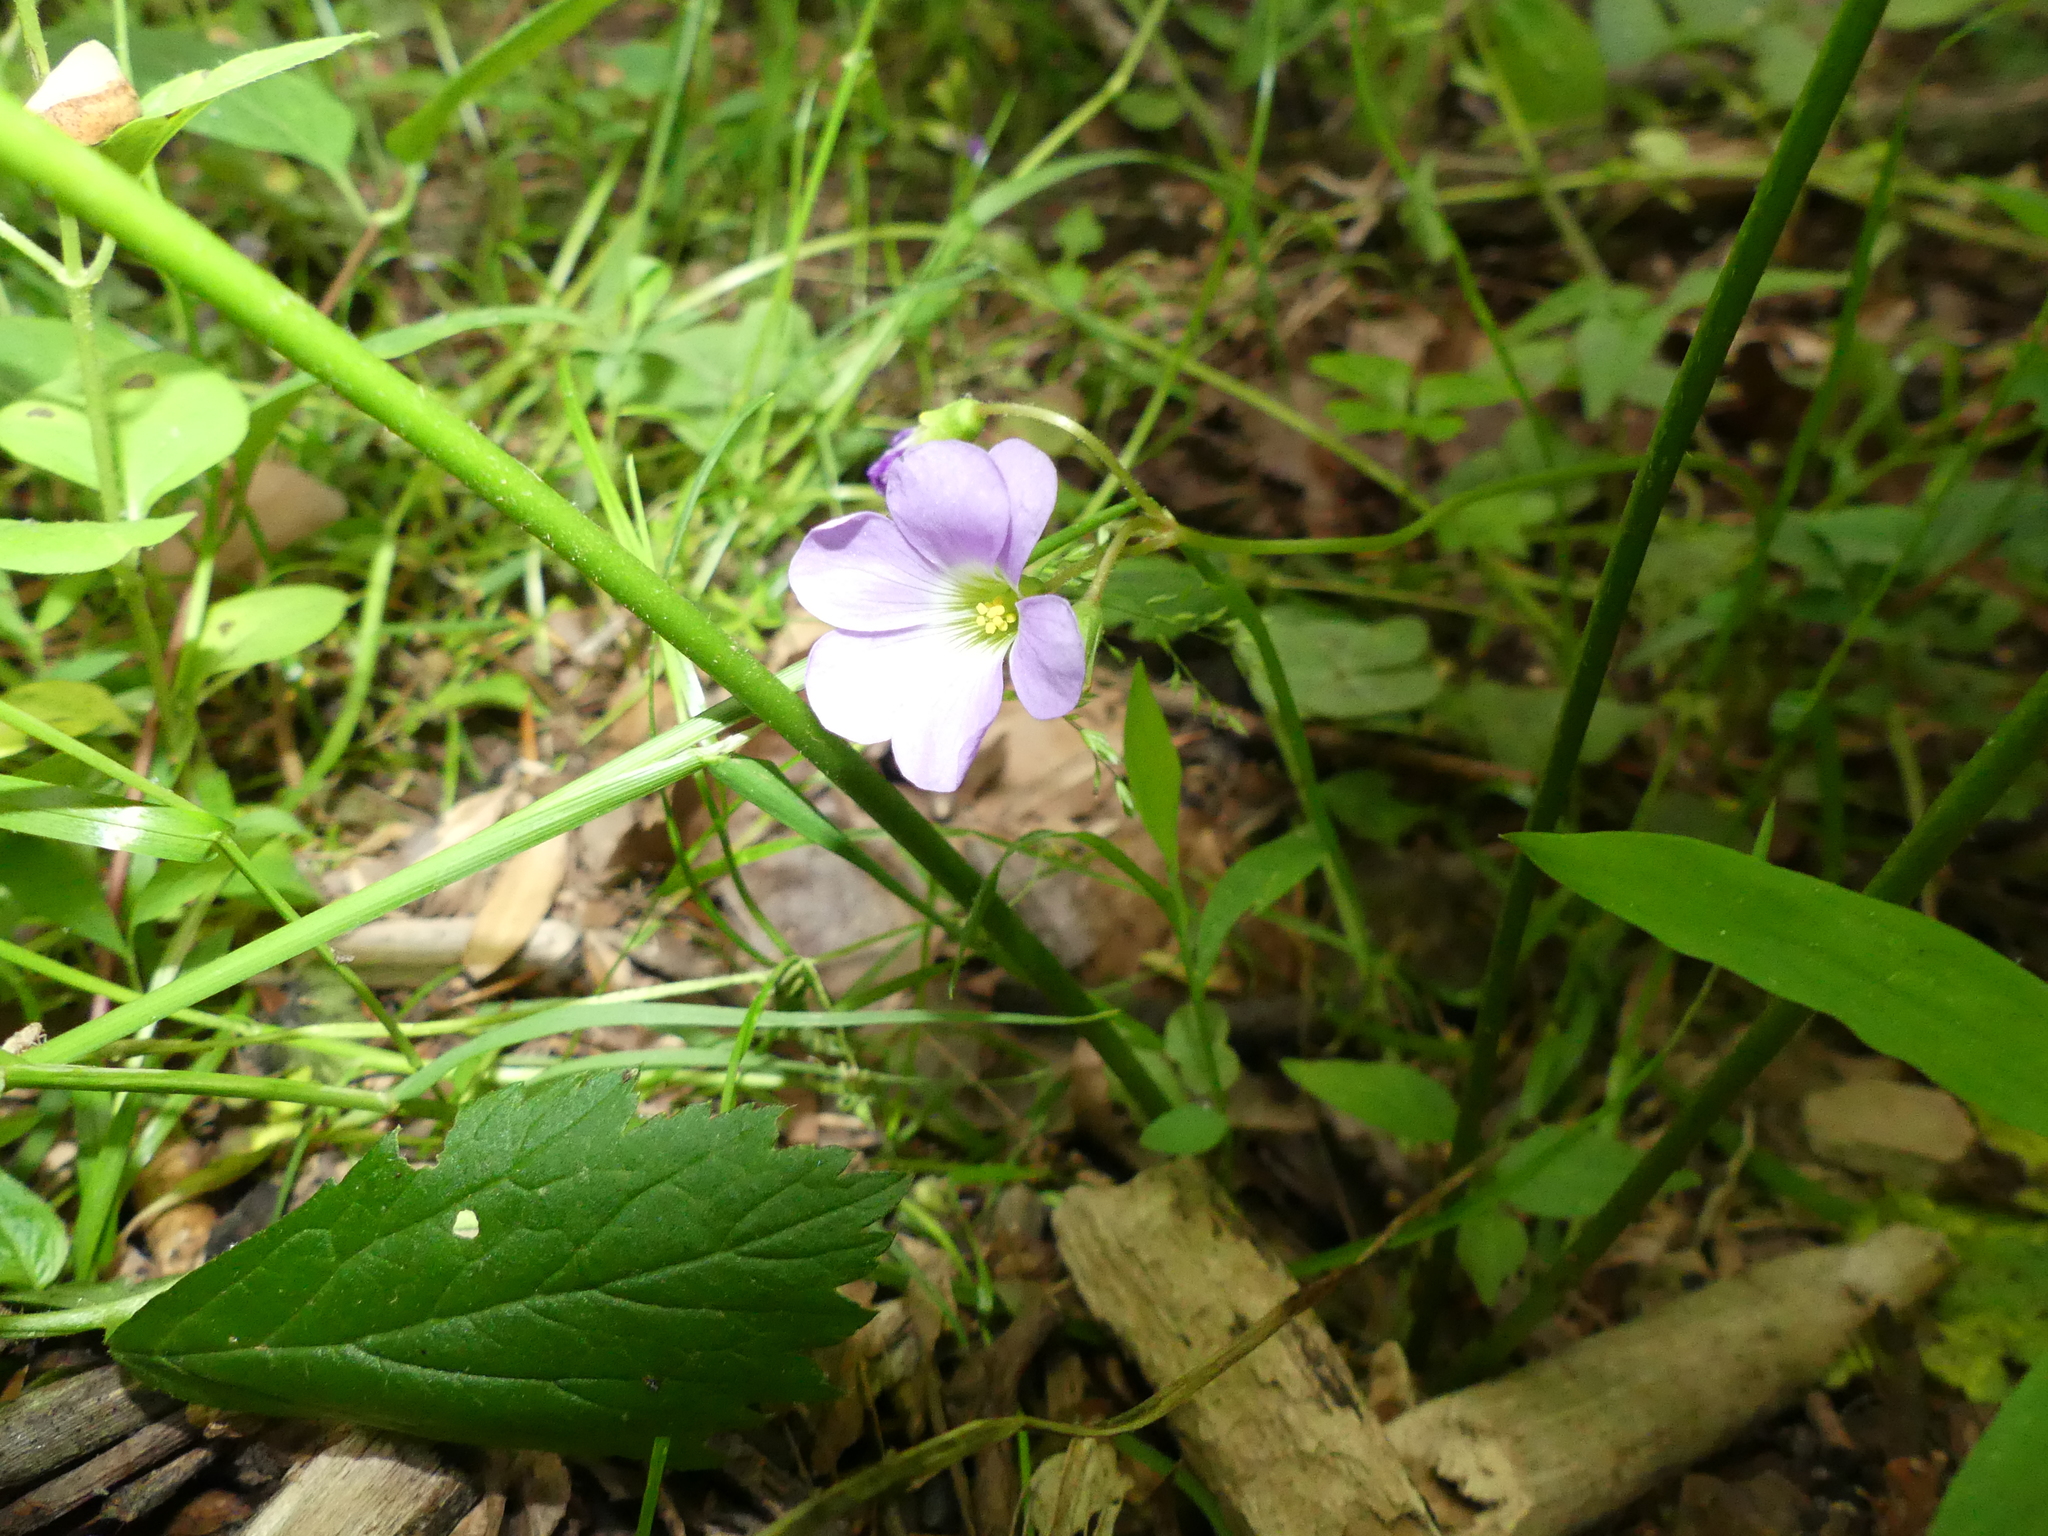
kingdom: Plantae
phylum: Tracheophyta
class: Magnoliopsida
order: Oxalidales
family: Oxalidaceae
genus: Oxalis
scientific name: Oxalis violacea
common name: Violet wood-sorrel
